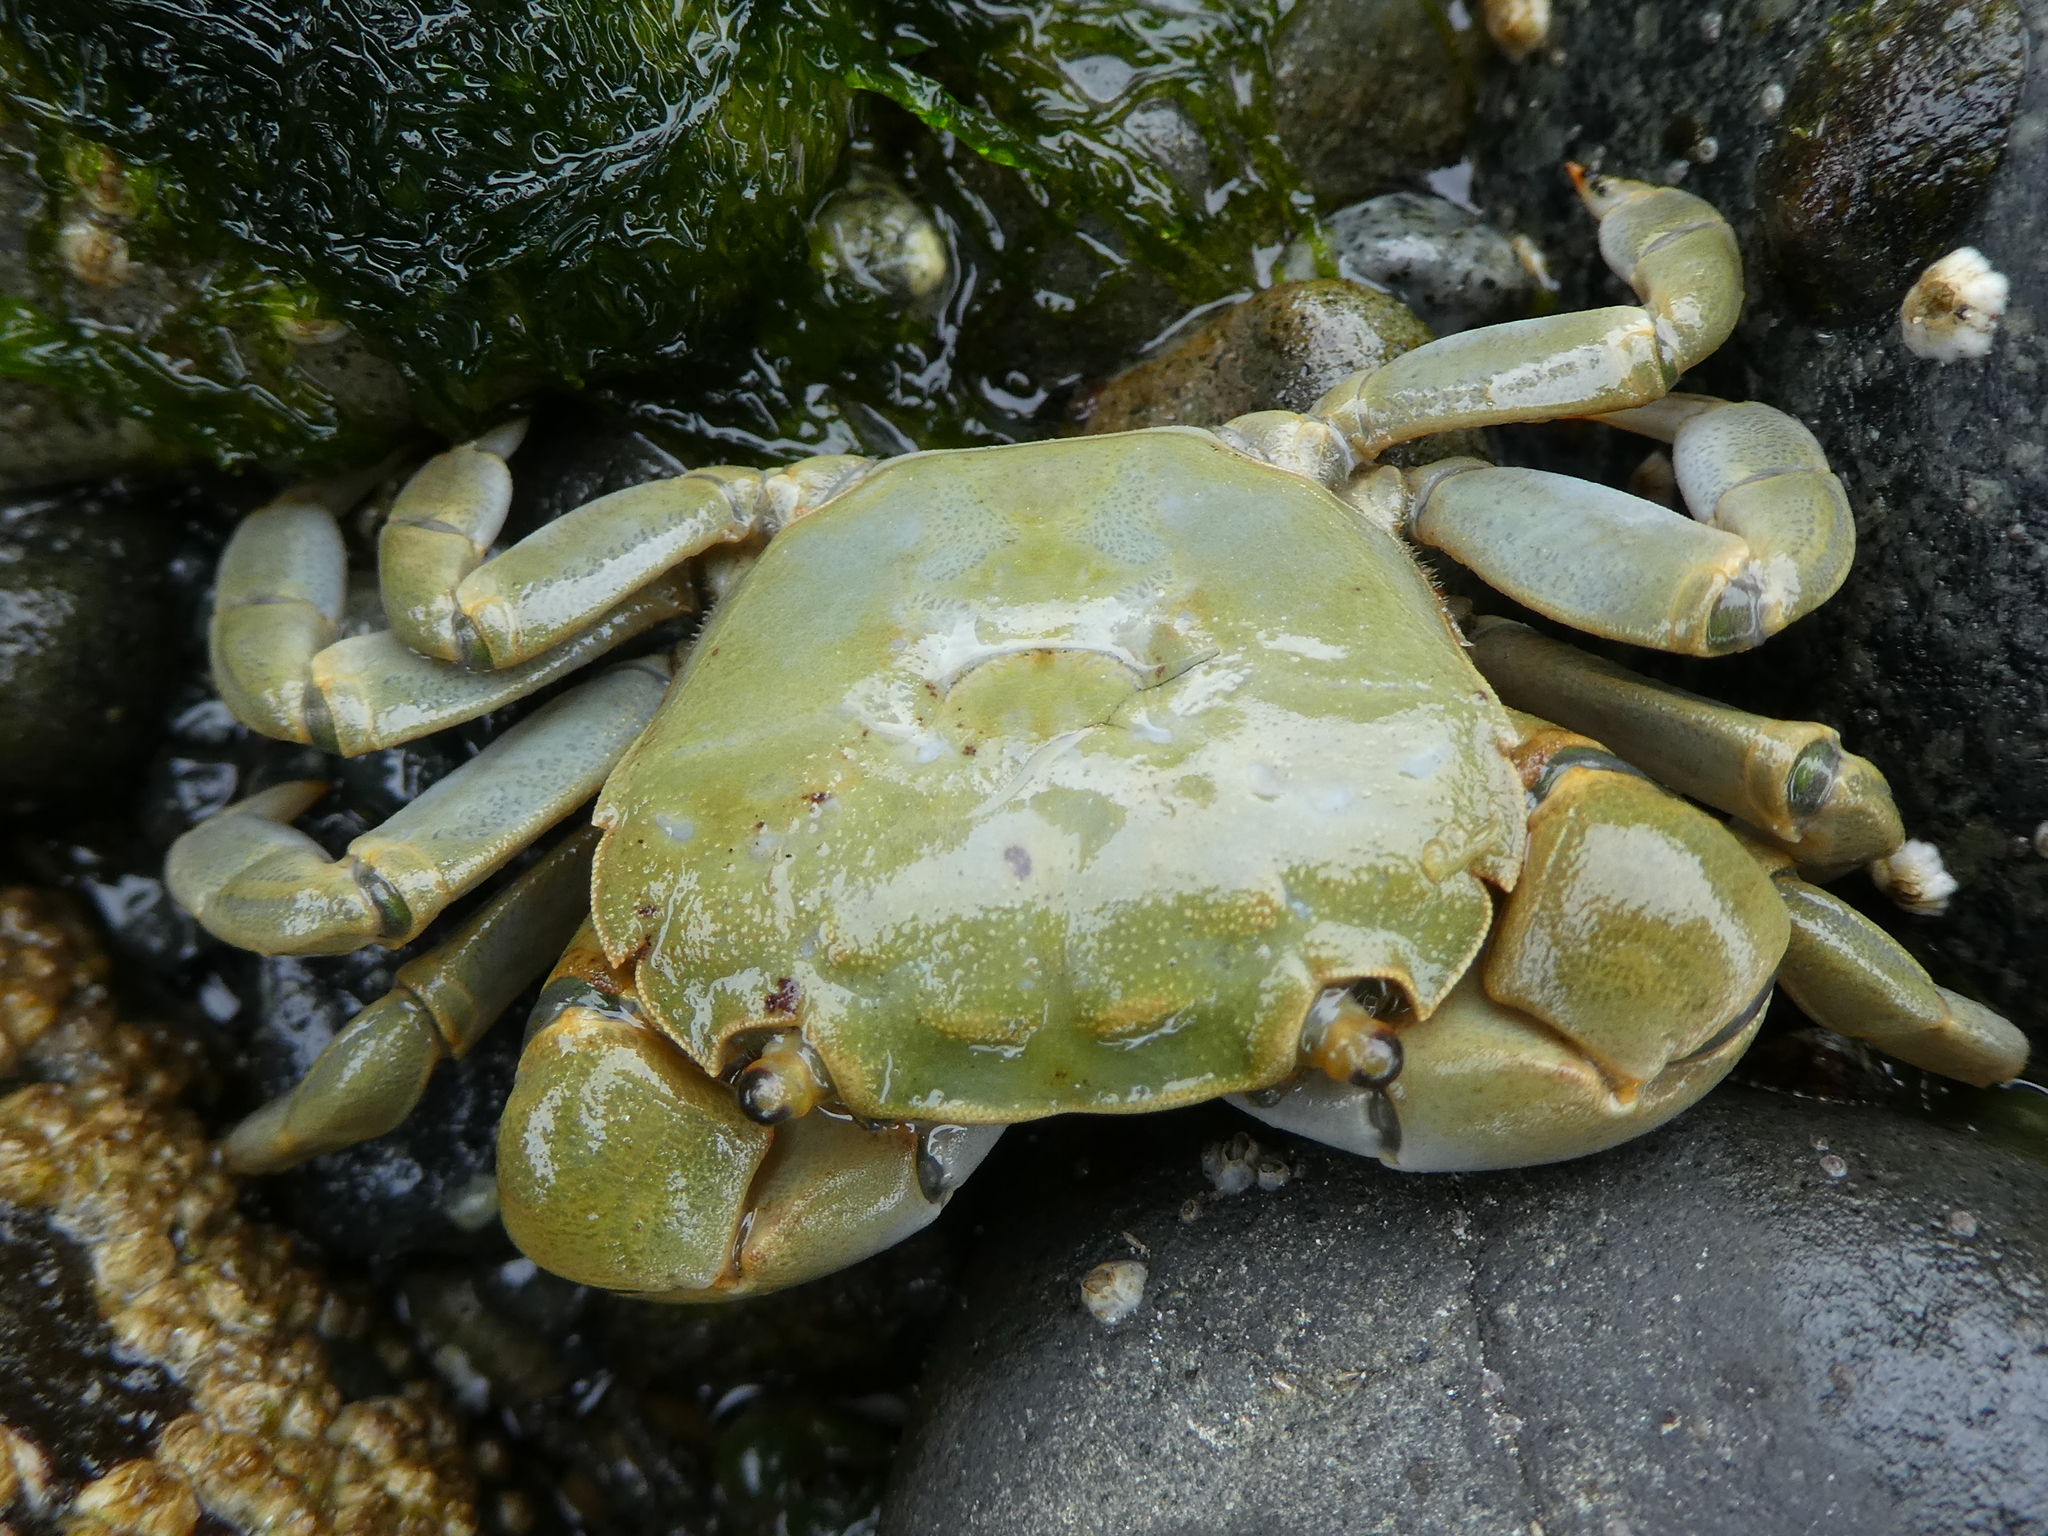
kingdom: Animalia
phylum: Arthropoda
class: Malacostraca
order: Decapoda
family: Varunidae
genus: Hemigrapsus
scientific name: Hemigrapsus nudus
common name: Purple shore crab
